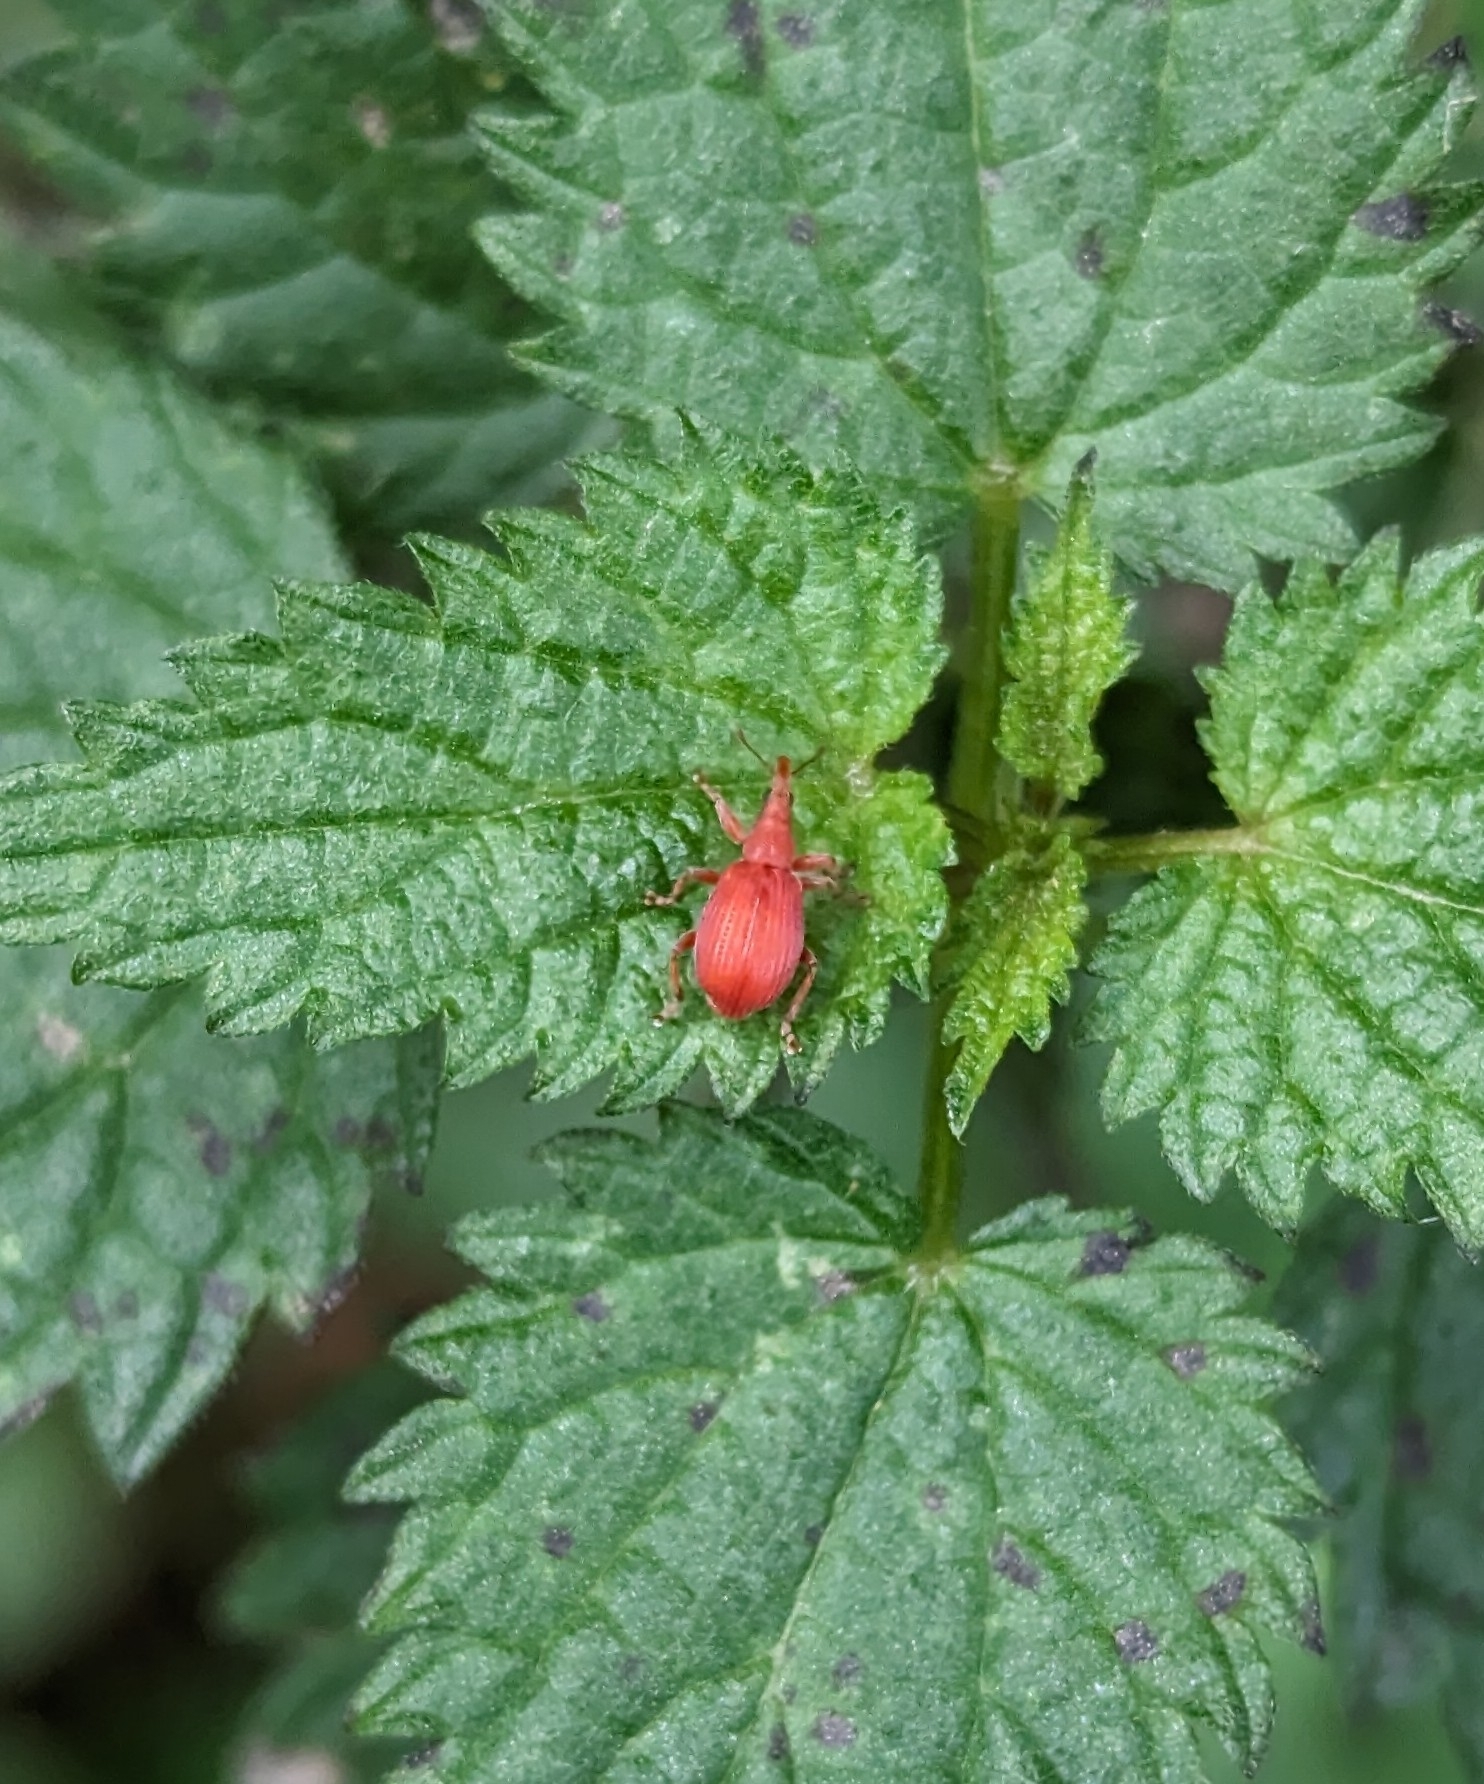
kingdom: Animalia
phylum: Arthropoda
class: Insecta
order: Coleoptera
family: Apionidae
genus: Apion
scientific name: Apion frumentarium
